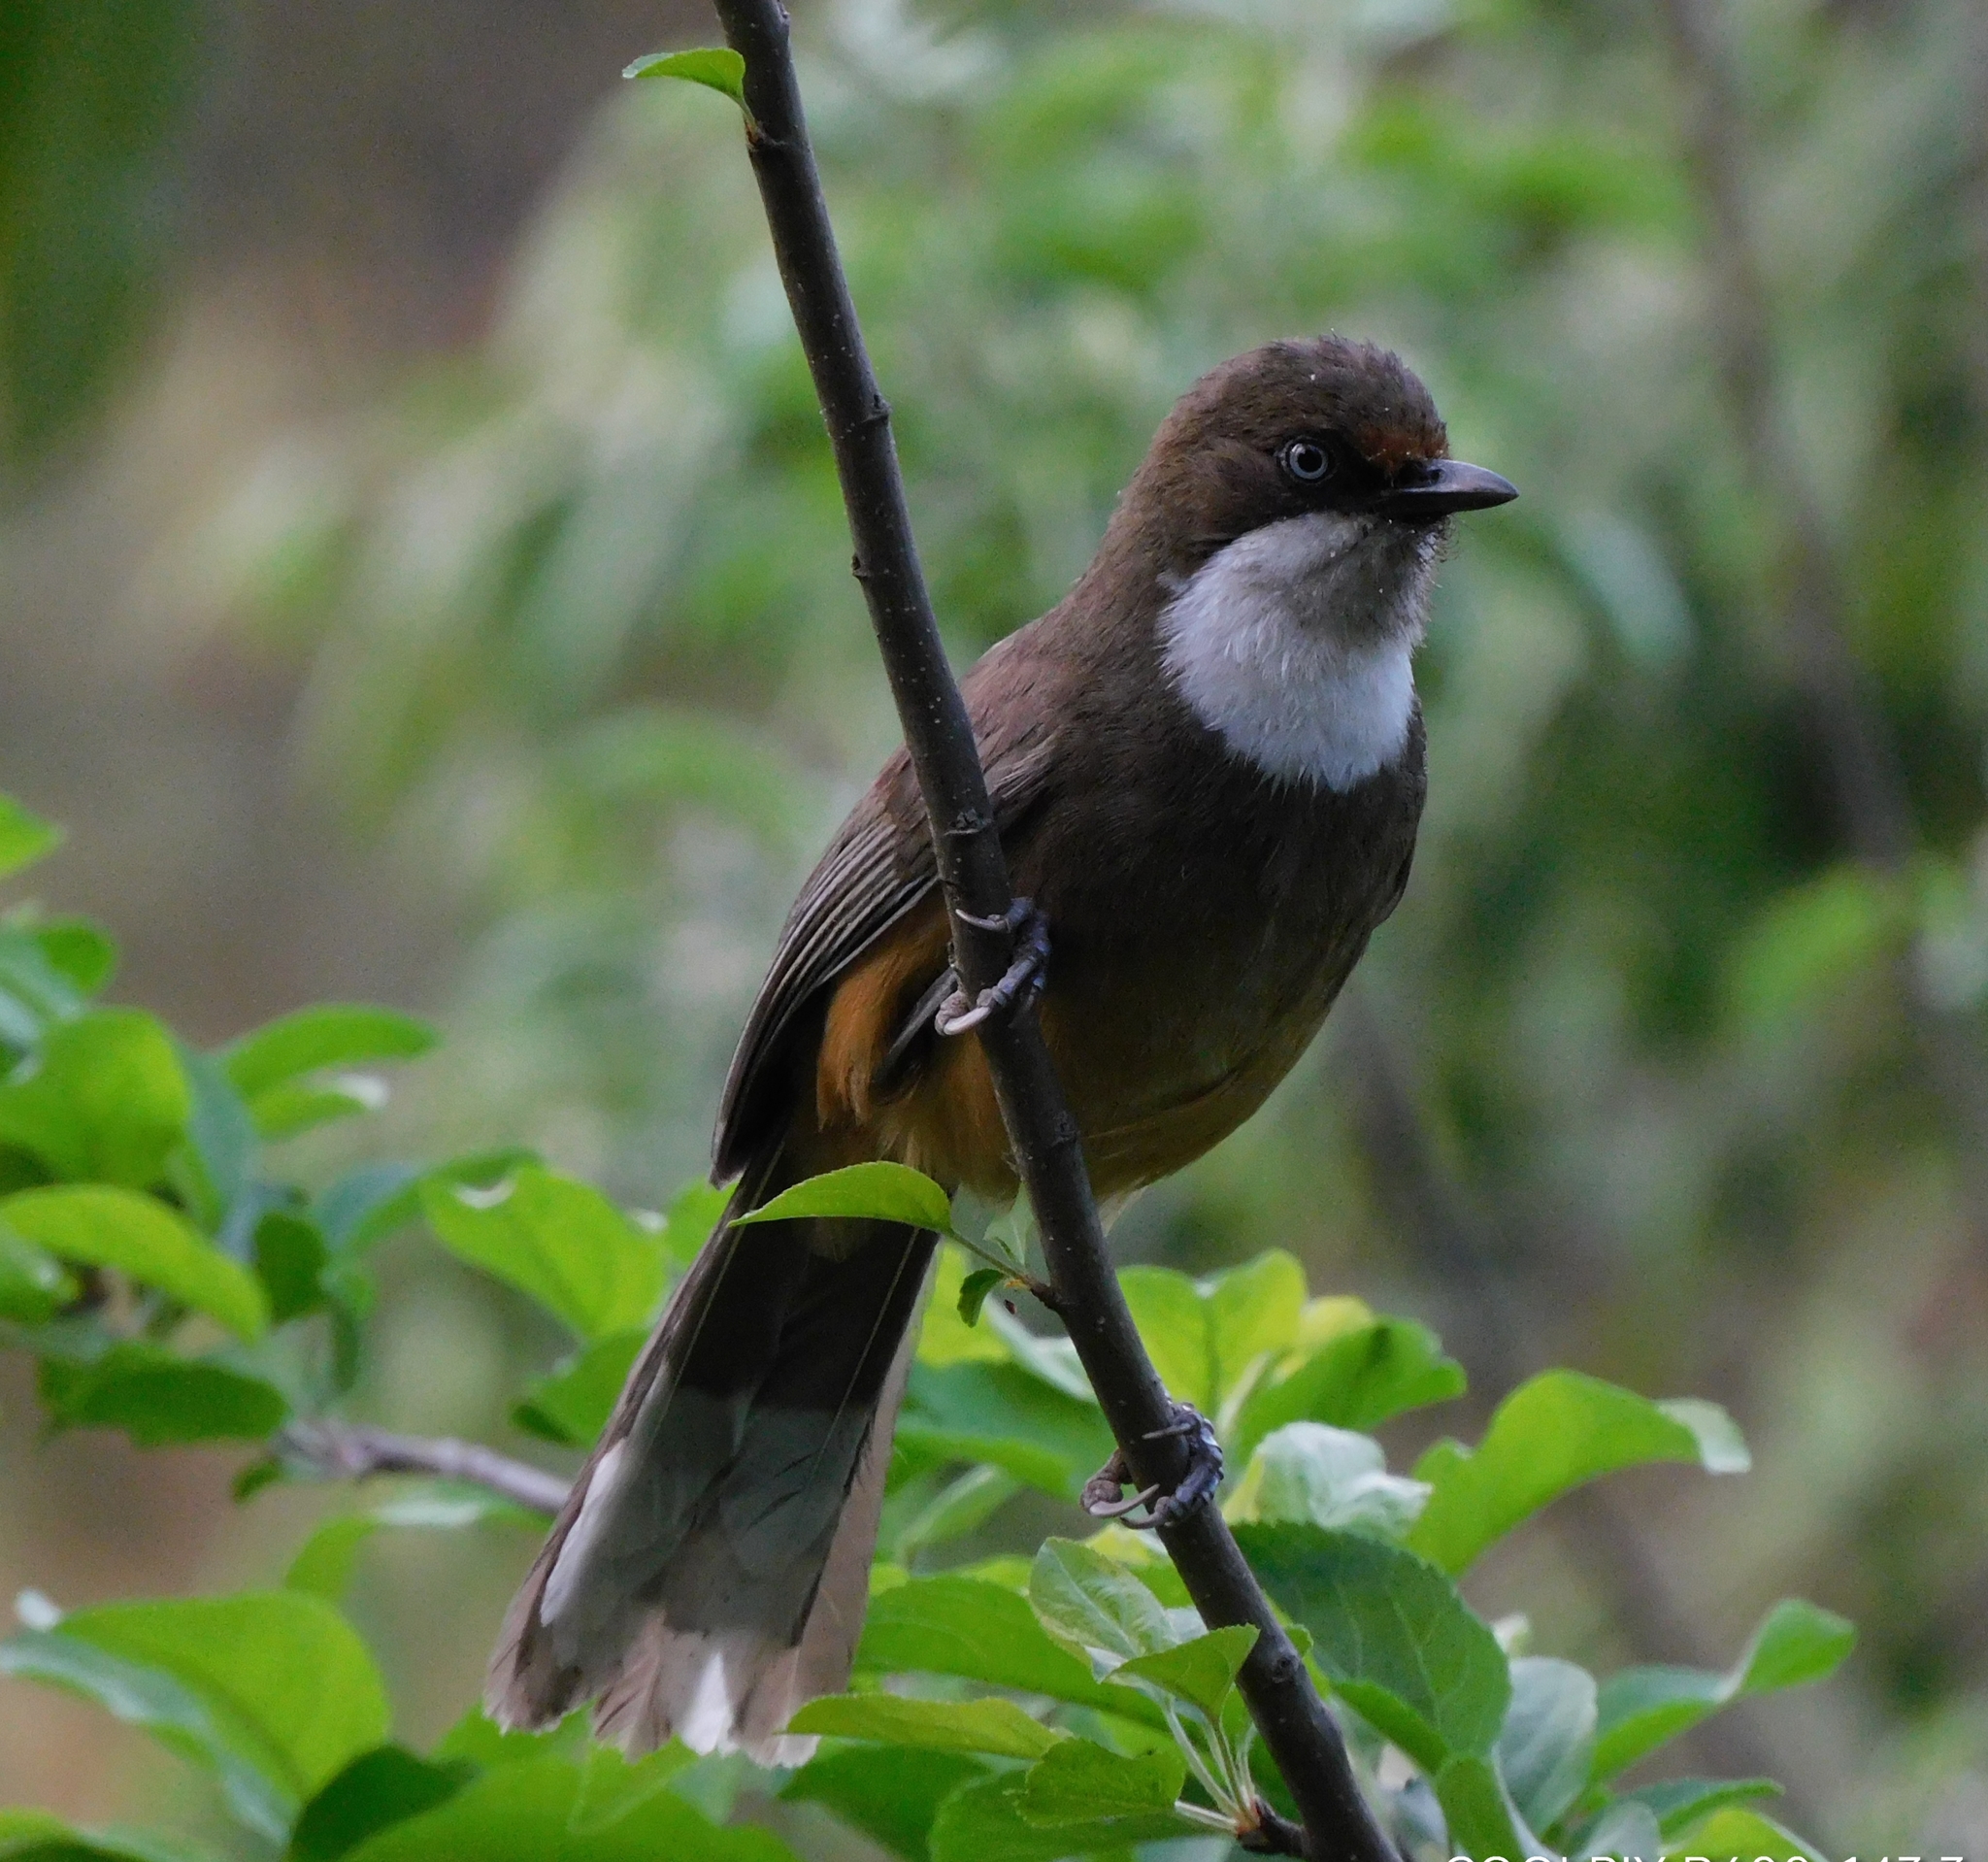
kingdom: Animalia
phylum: Chordata
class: Aves
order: Passeriformes
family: Leiothrichidae
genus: Garrulax
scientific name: Garrulax albogularis
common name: White-throated laughingthrush
